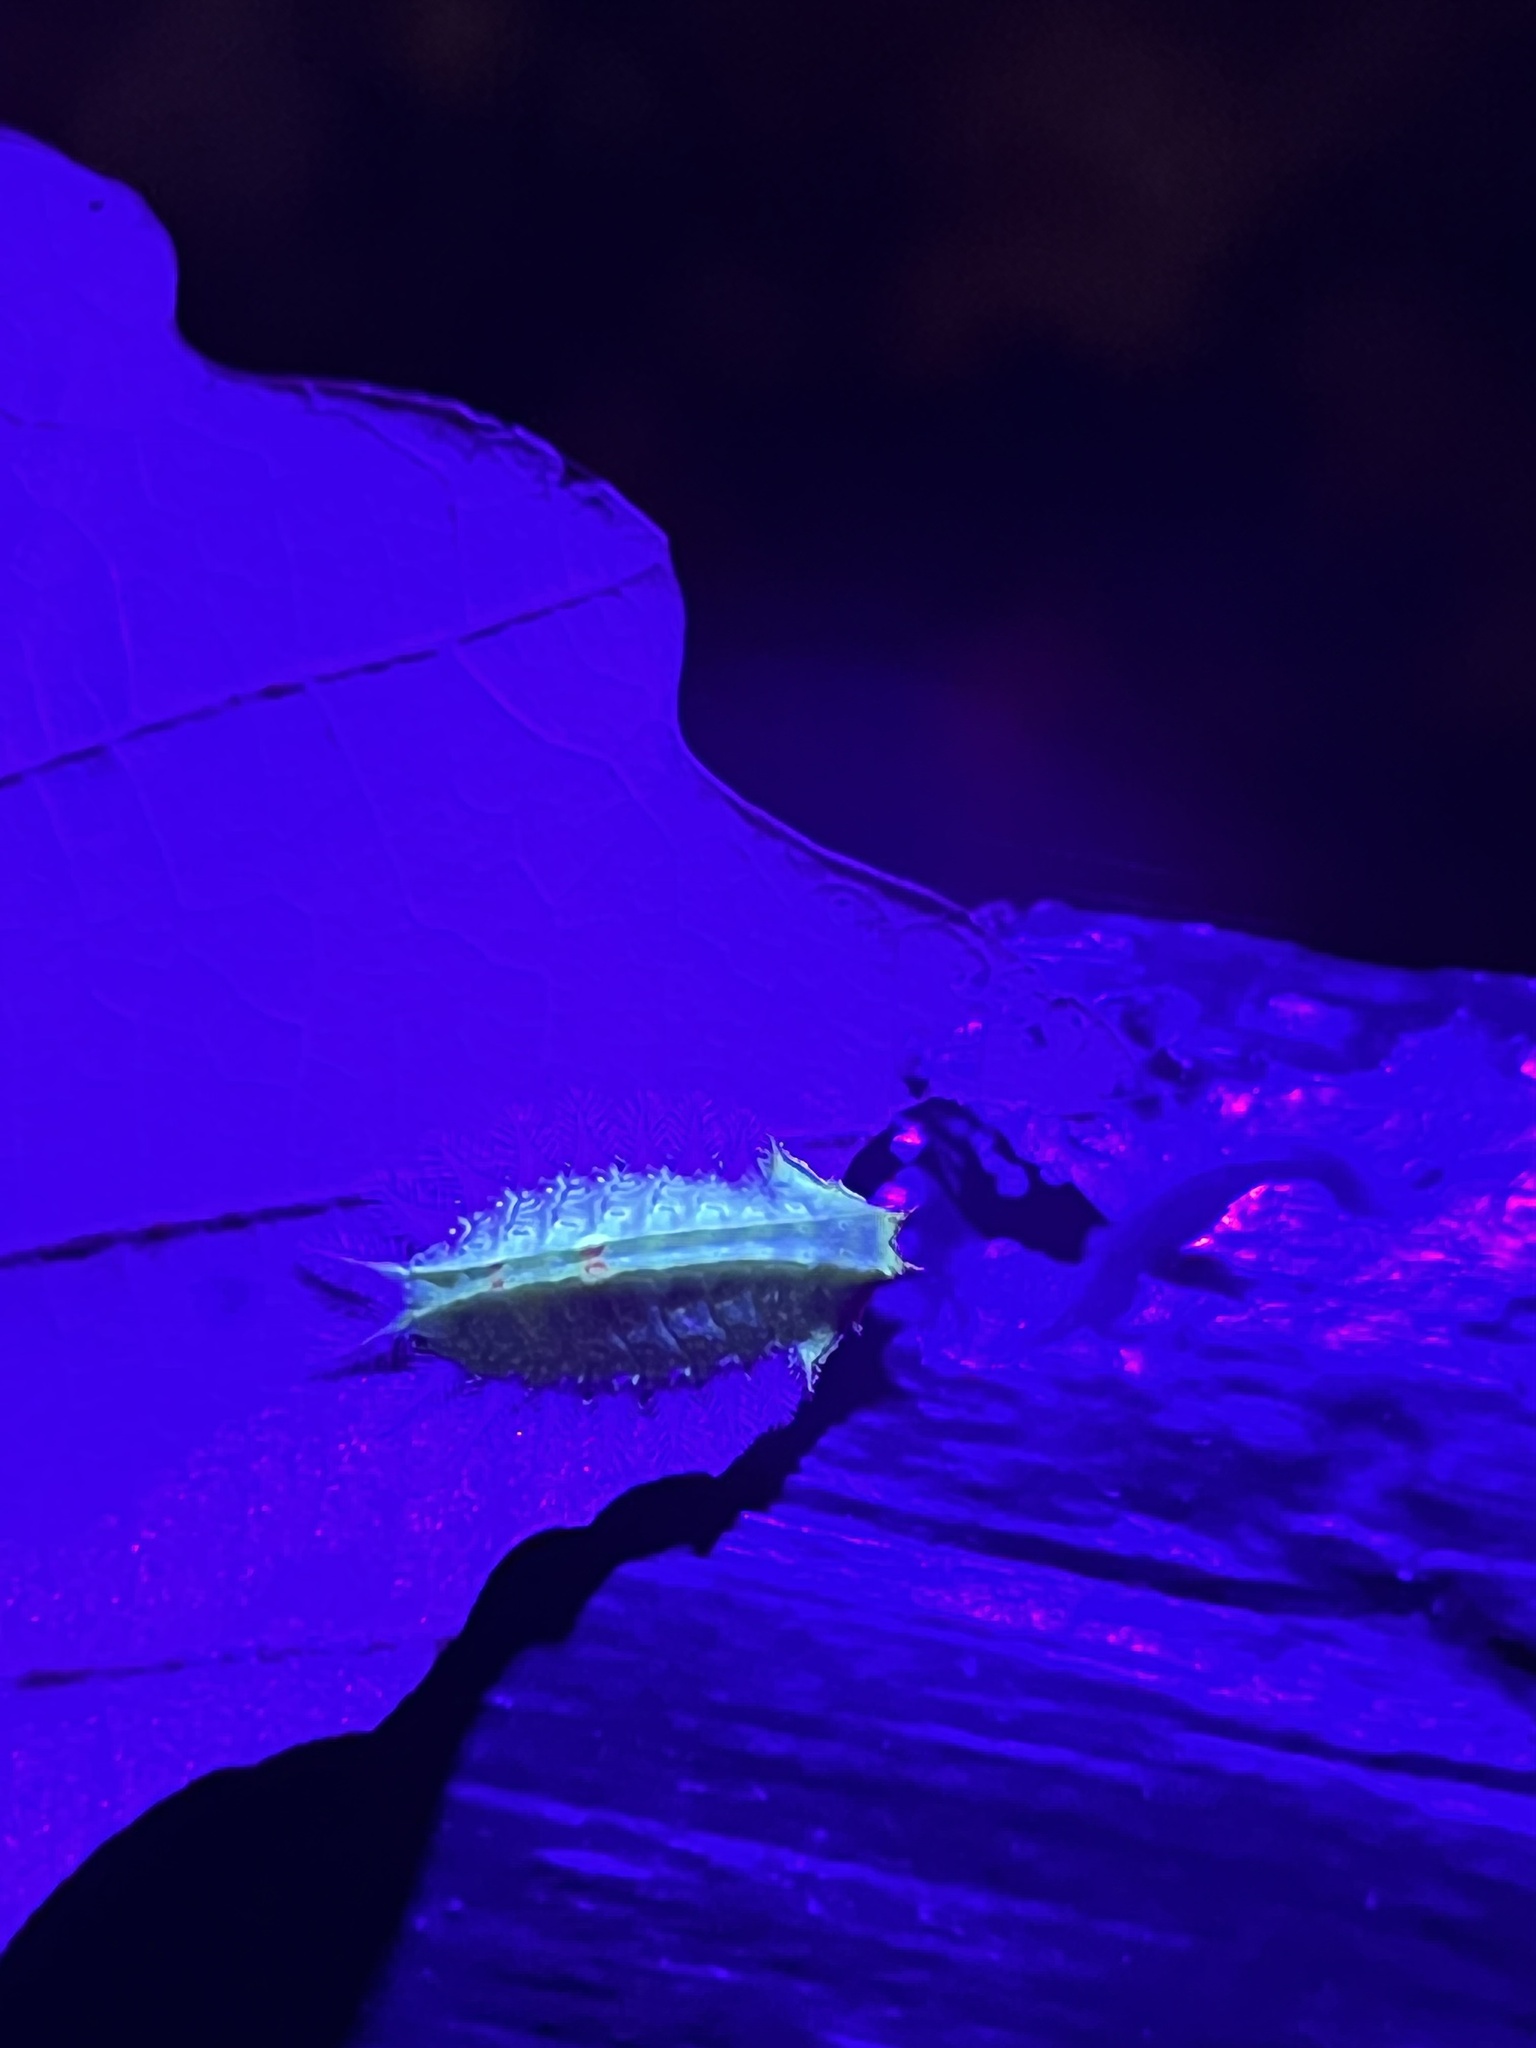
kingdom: Animalia
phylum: Arthropoda
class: Insecta
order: Lepidoptera
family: Limacodidae
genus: Isa
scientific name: Isa textula
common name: Crowned slug moth
